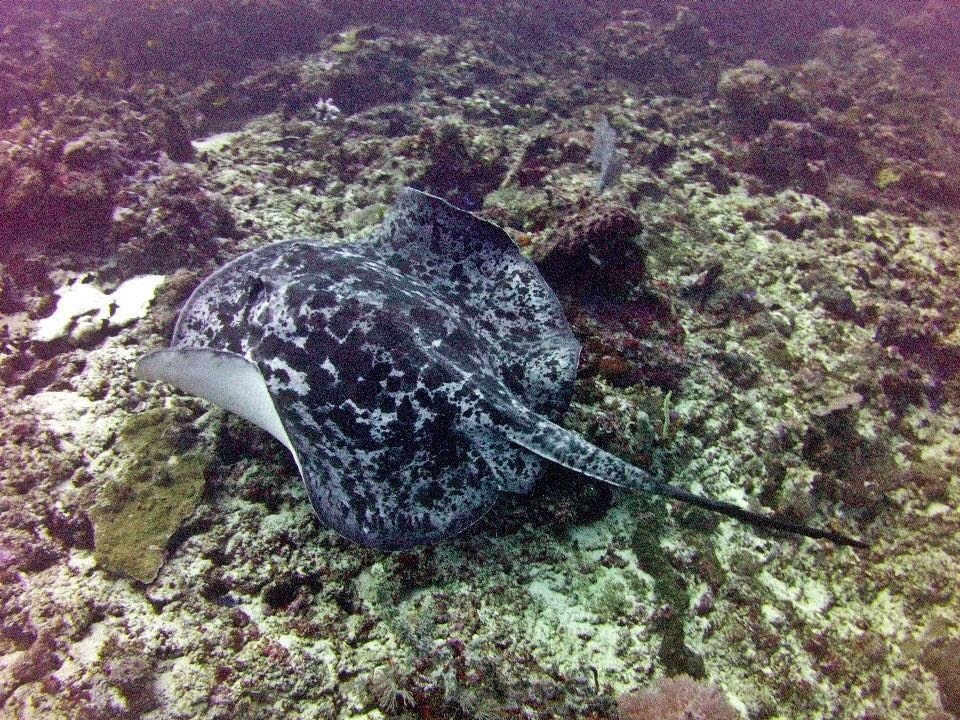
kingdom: Animalia
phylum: Chordata
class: Elasmobranchii
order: Myliobatiformes
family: Dasyatidae
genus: Taeniurops
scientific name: Taeniurops meyeni
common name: Black-blotched stingray
